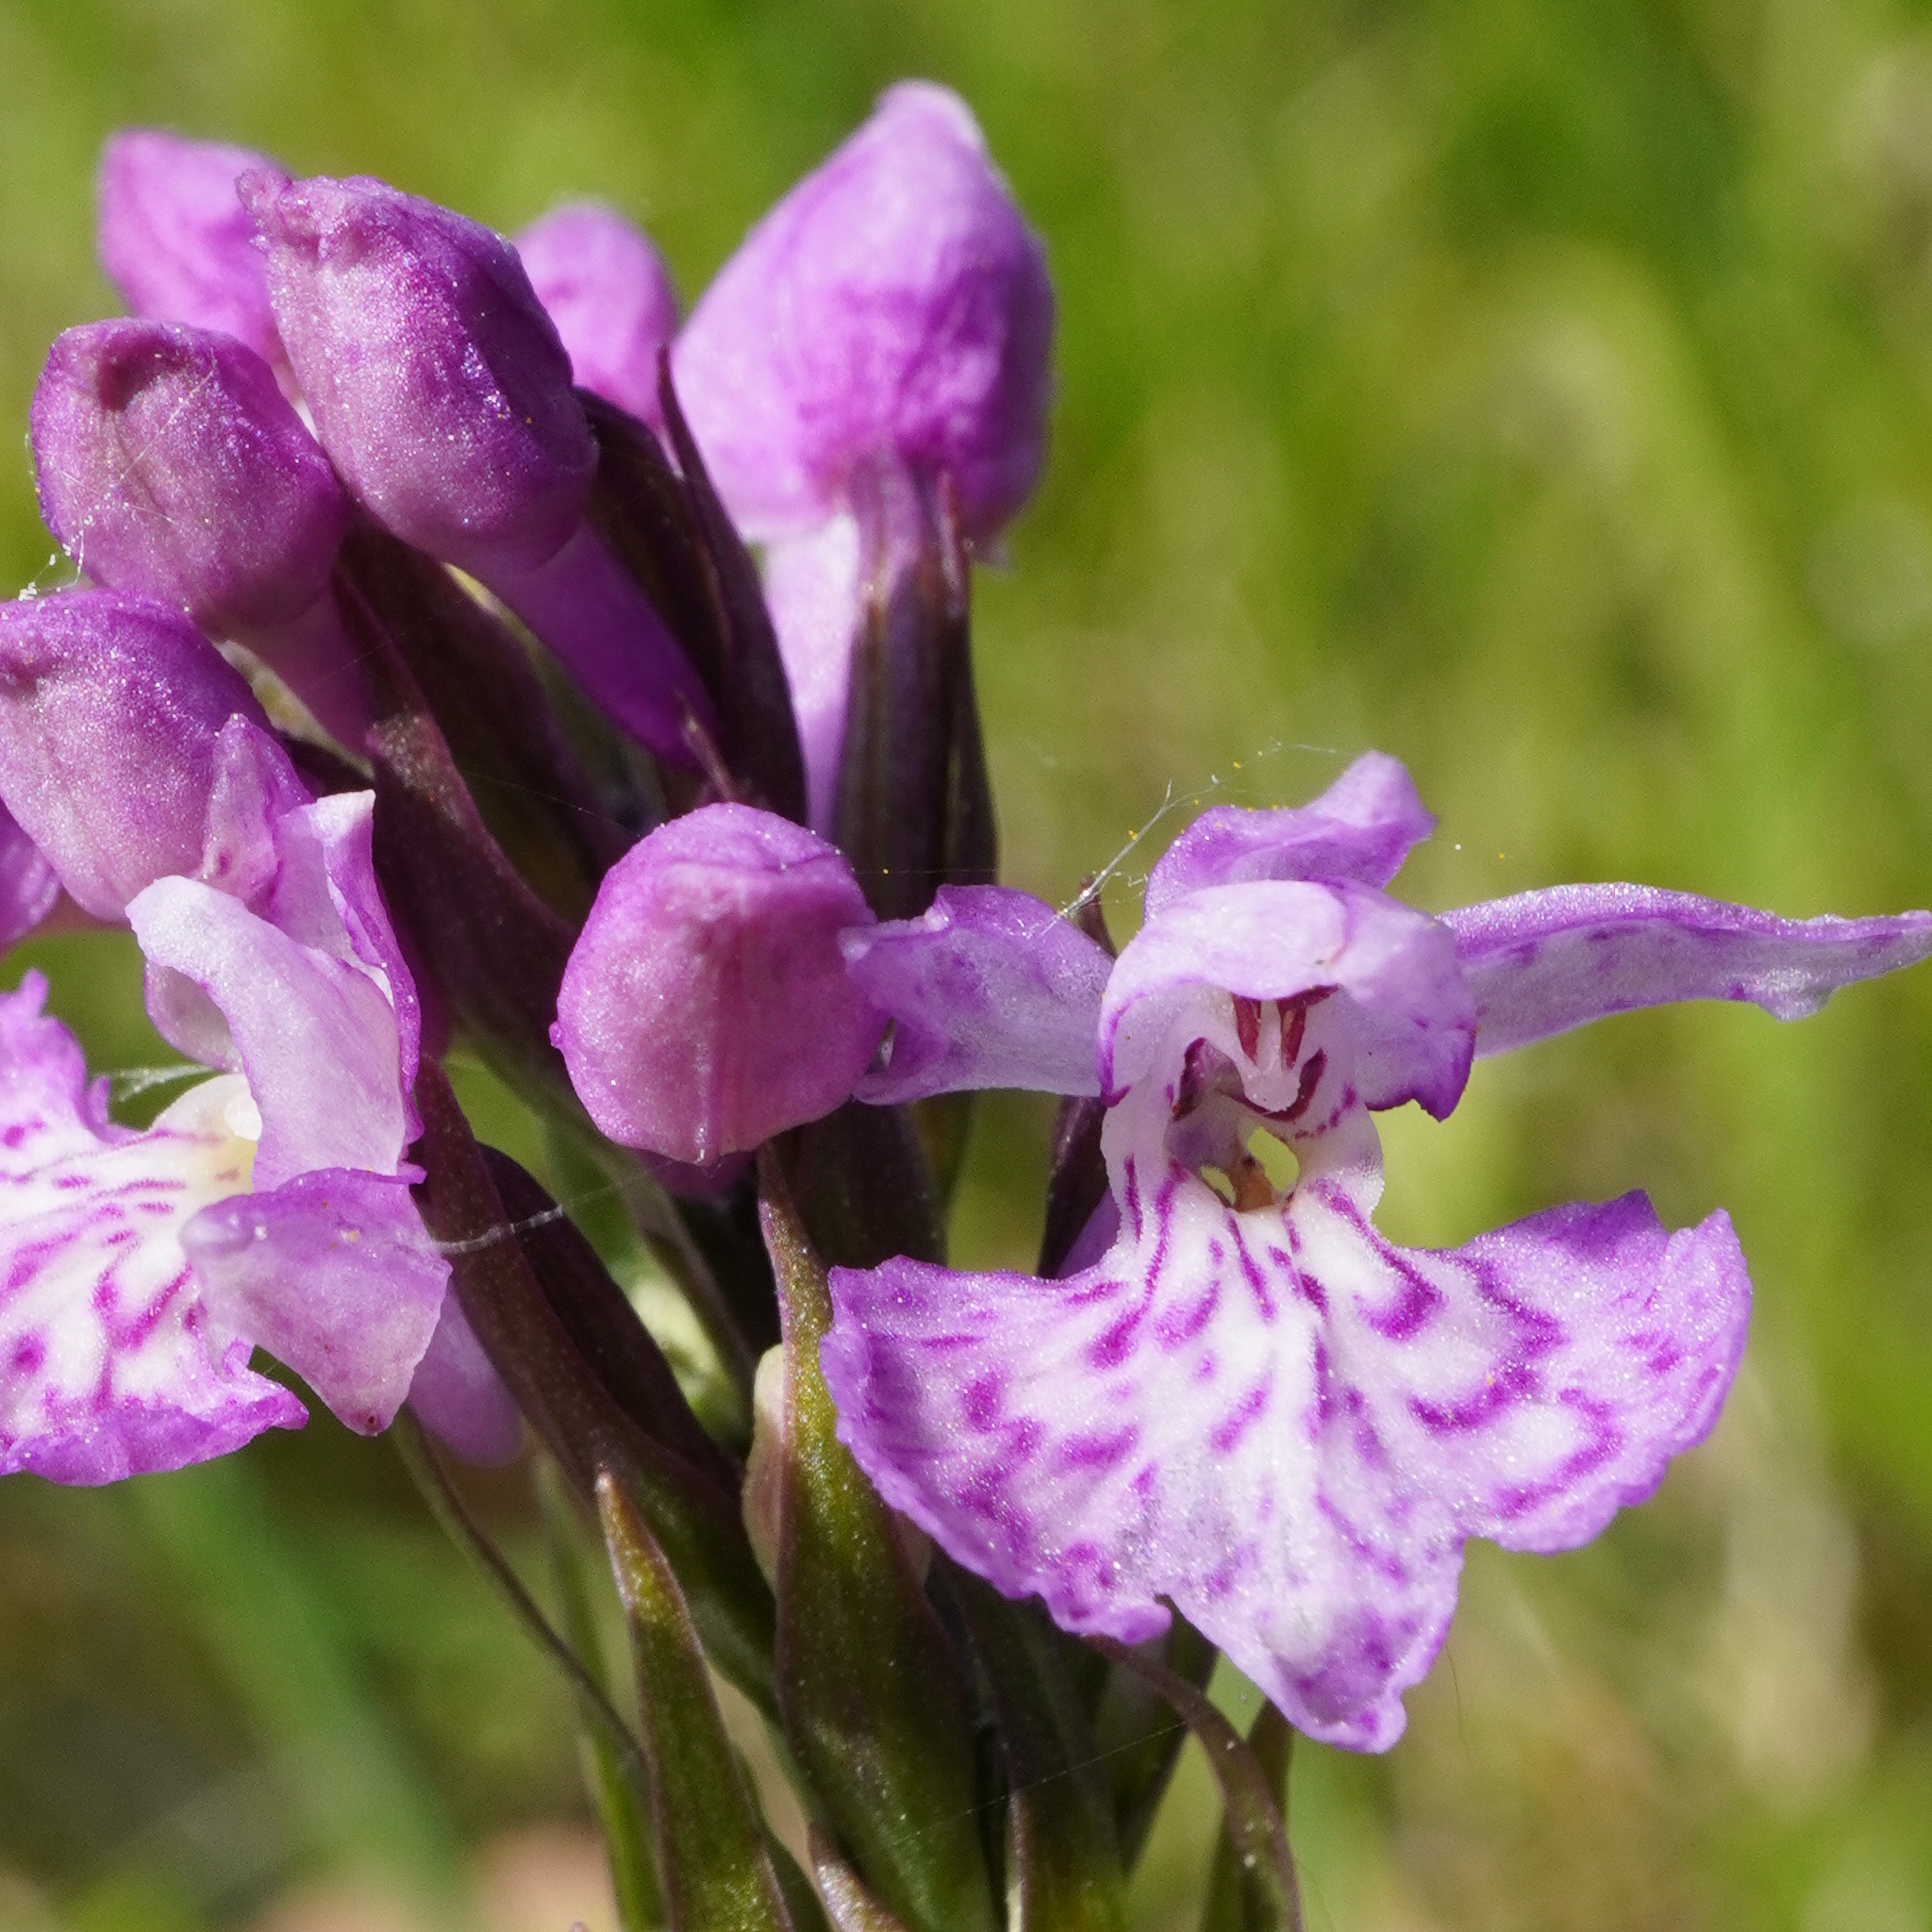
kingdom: Plantae
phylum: Tracheophyta
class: Liliopsida
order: Asparagales
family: Orchidaceae
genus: Dactylorhiza
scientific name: Dactylorhiza maculata
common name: Heath spotted-orchid
